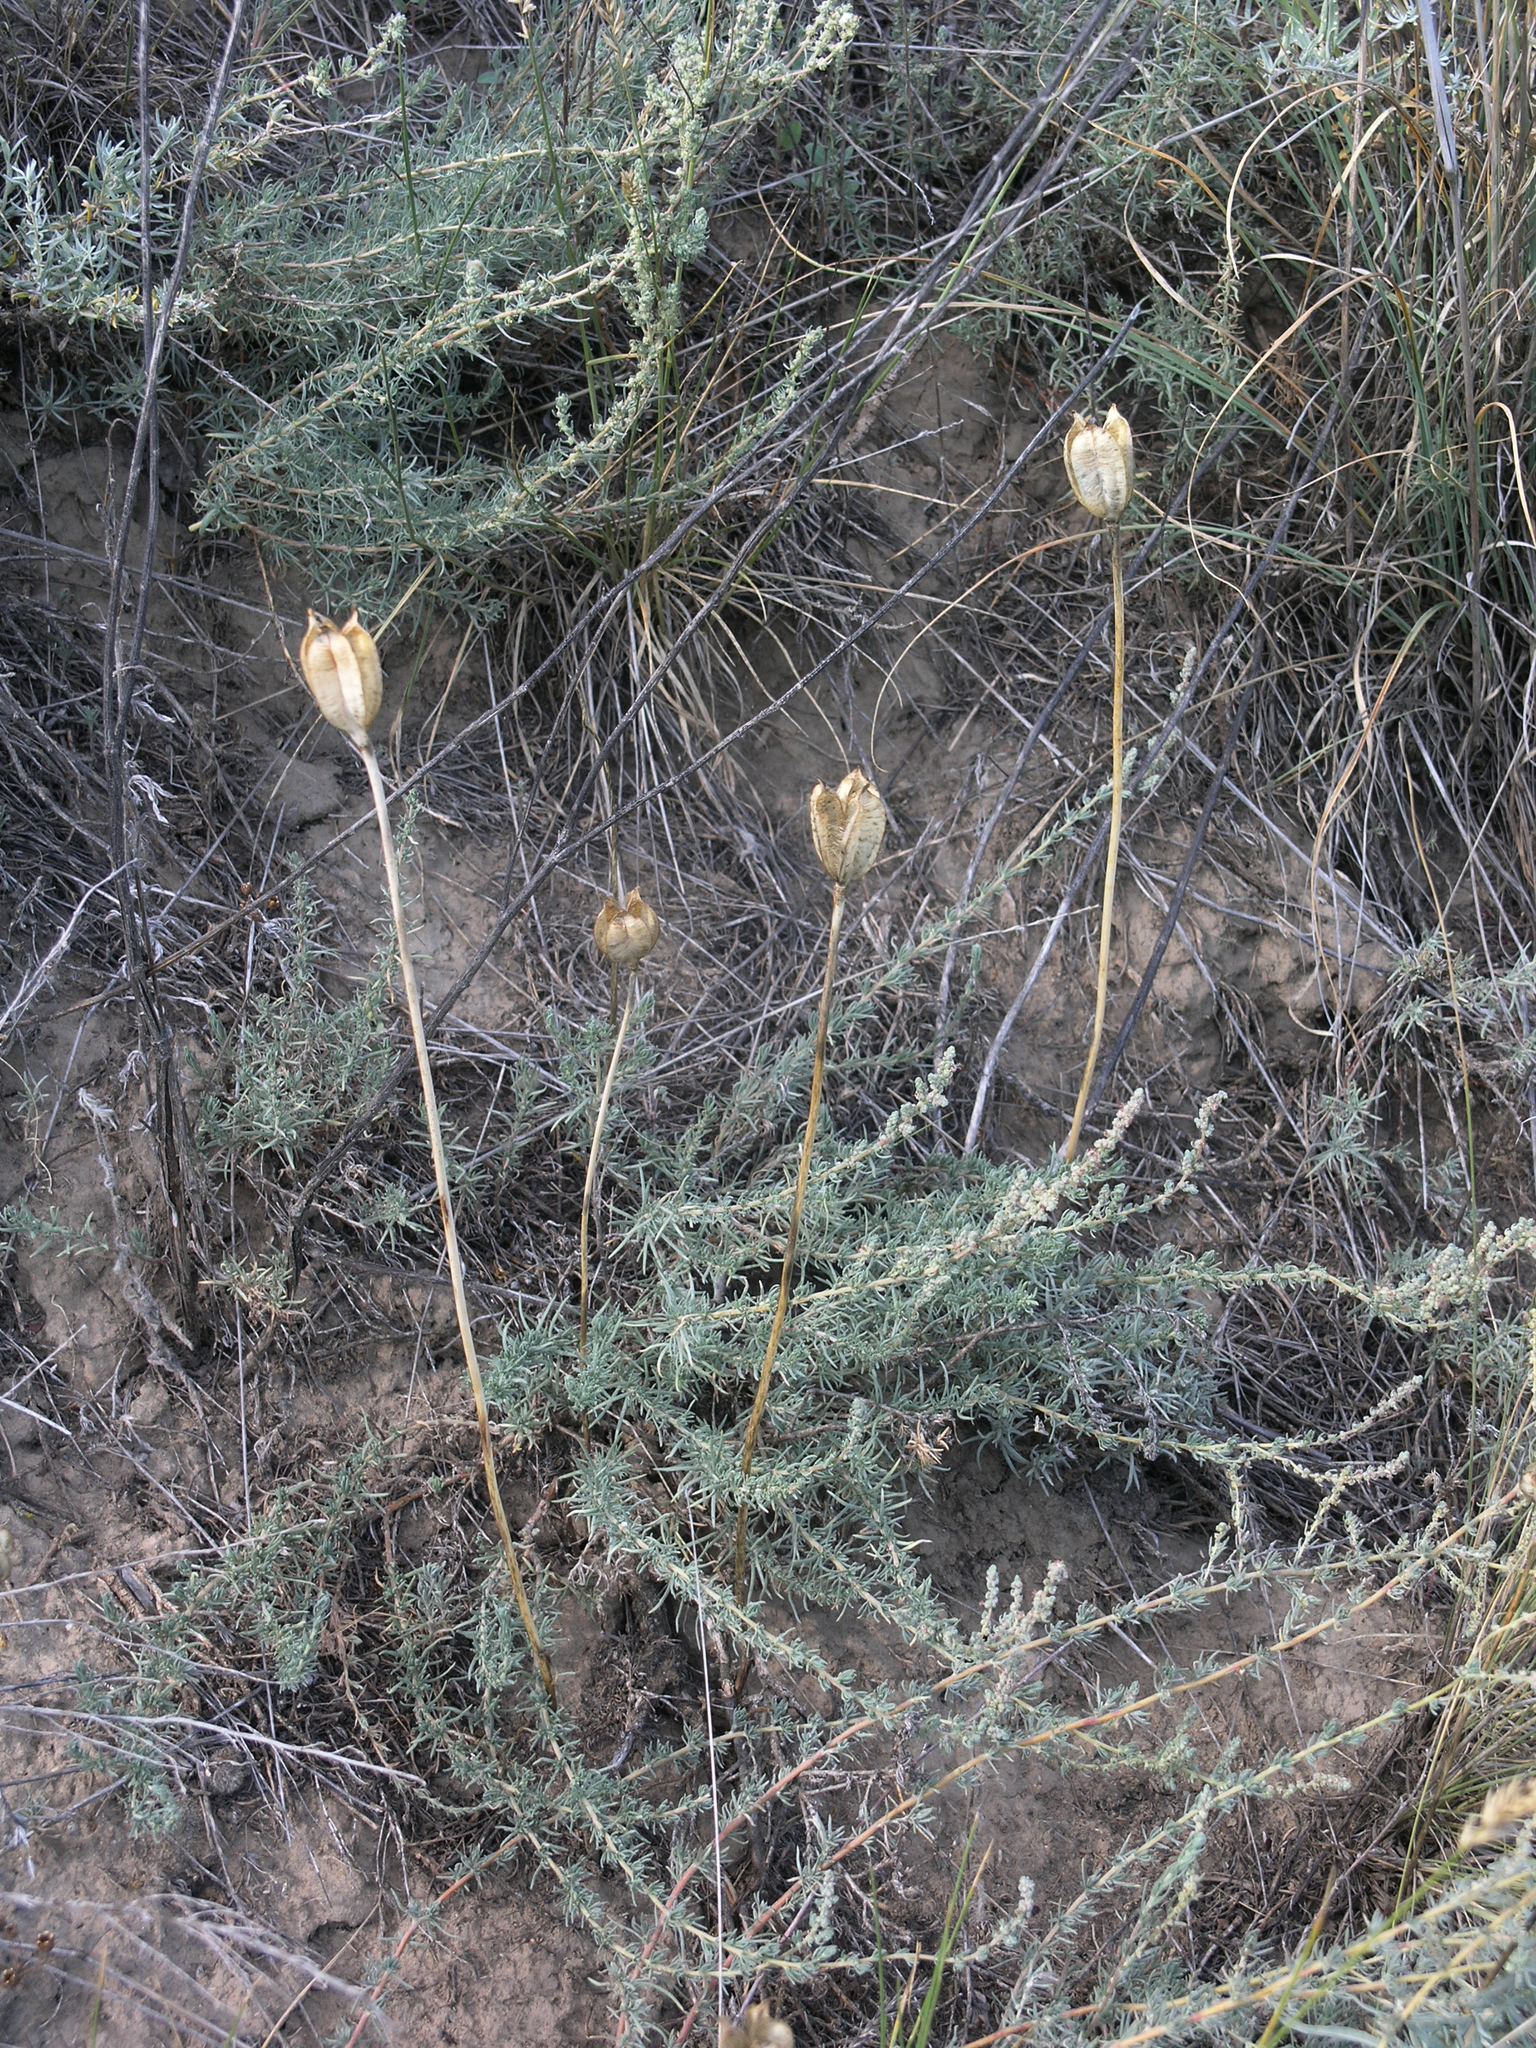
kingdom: Plantae
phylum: Tracheophyta
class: Magnoliopsida
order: Caryophyllales
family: Amaranthaceae
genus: Krascheninnikovia
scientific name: Krascheninnikovia ceratoides
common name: Pamirian winterfat
